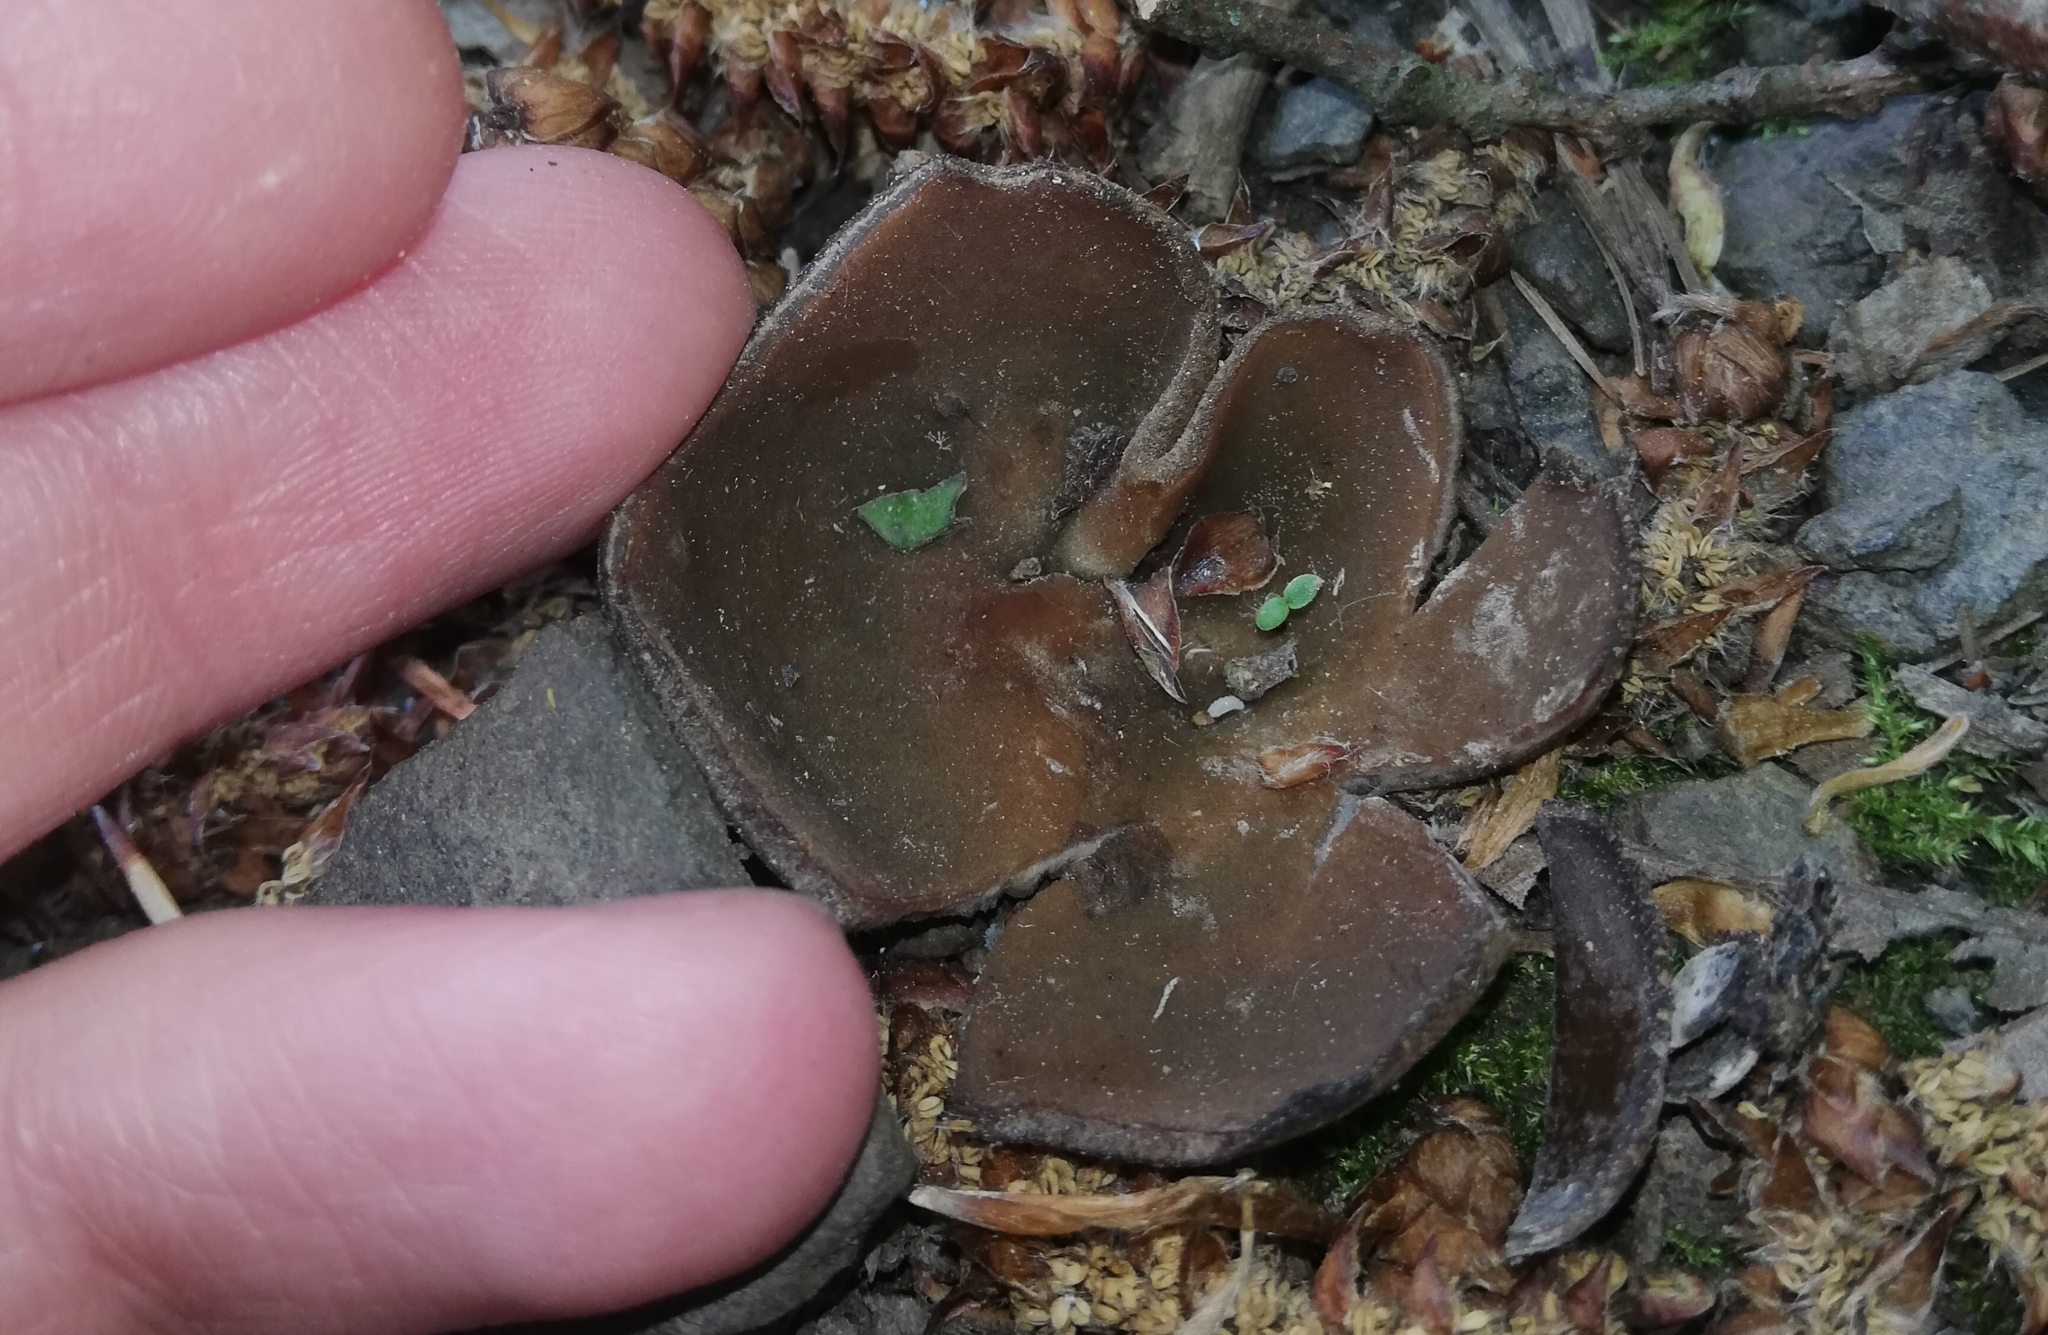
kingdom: Fungi
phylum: Ascomycota
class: Pezizomycetes
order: Pezizales
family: Pezizaceae
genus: Phylloscypha
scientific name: Phylloscypha phyllogena
